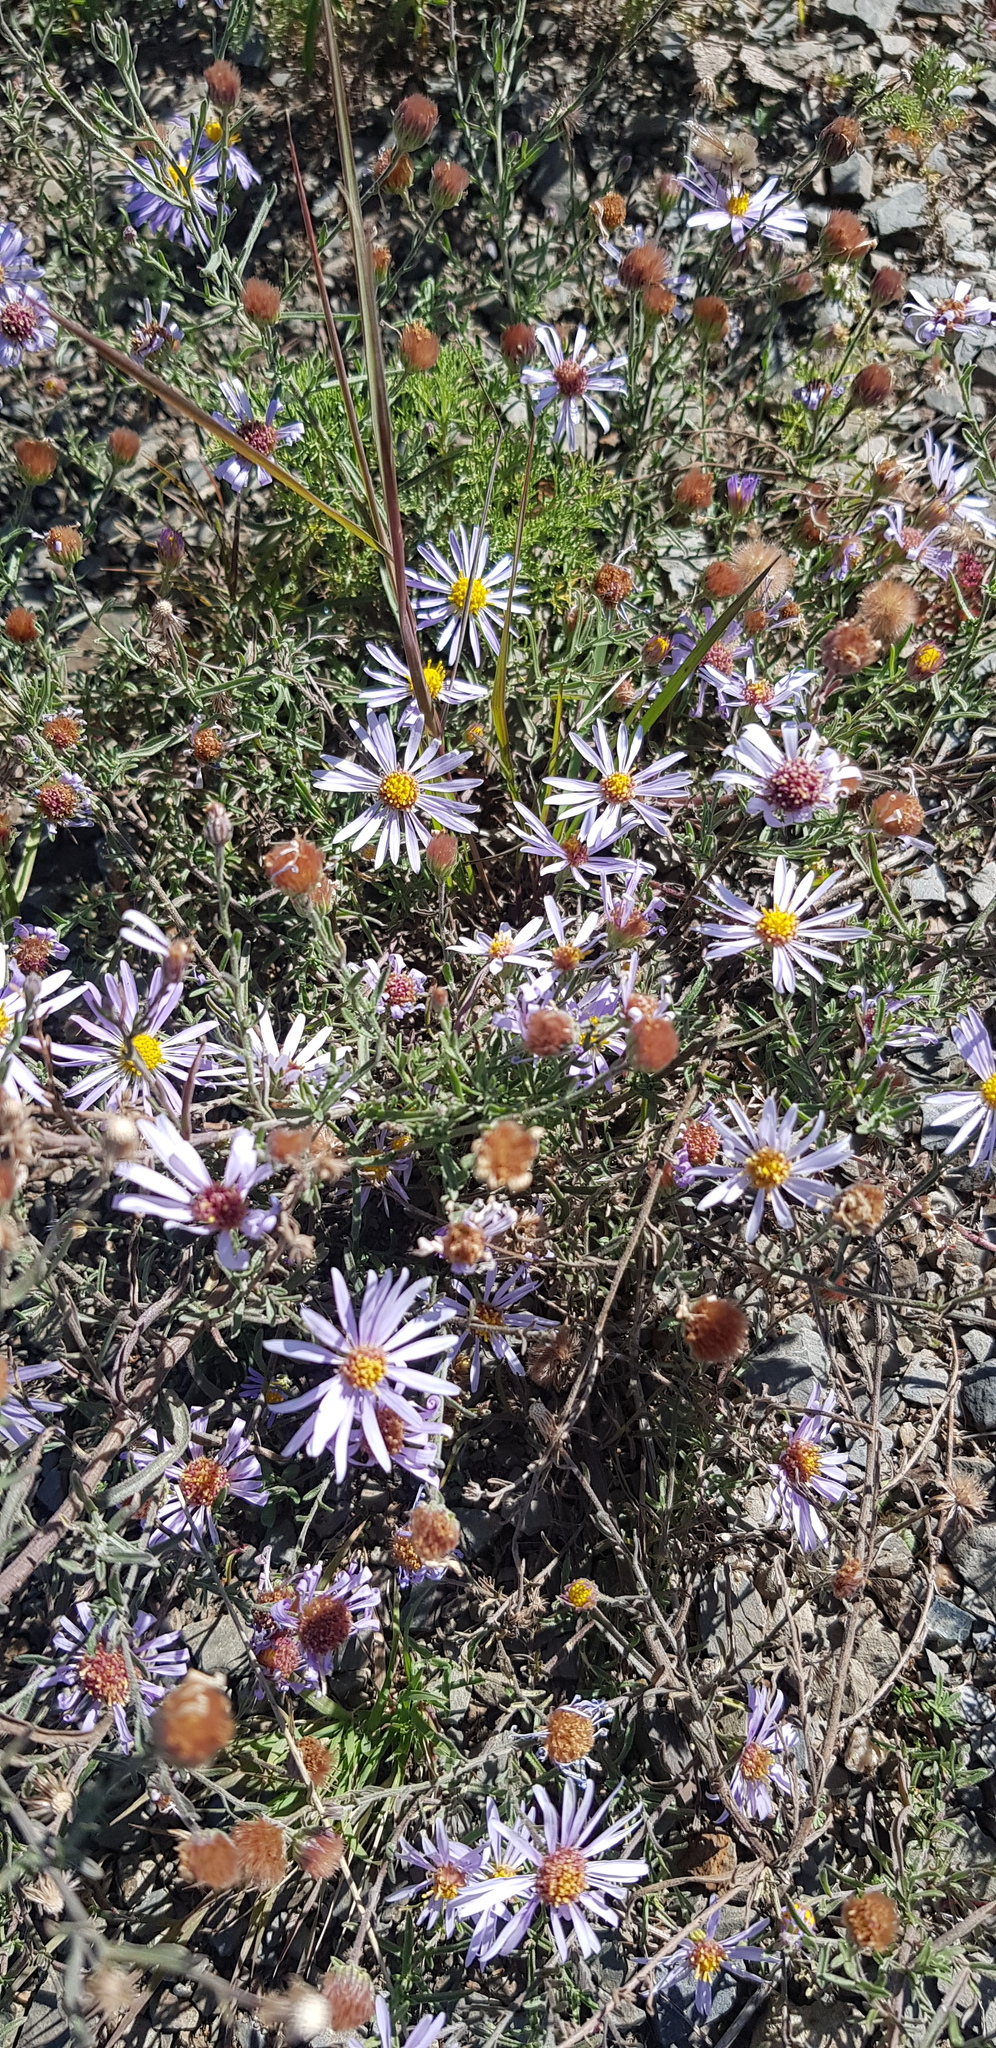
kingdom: Plantae
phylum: Tracheophyta
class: Magnoliopsida
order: Asterales
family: Asteraceae
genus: Asterothamnus
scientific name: Asterothamnus alyssoides
